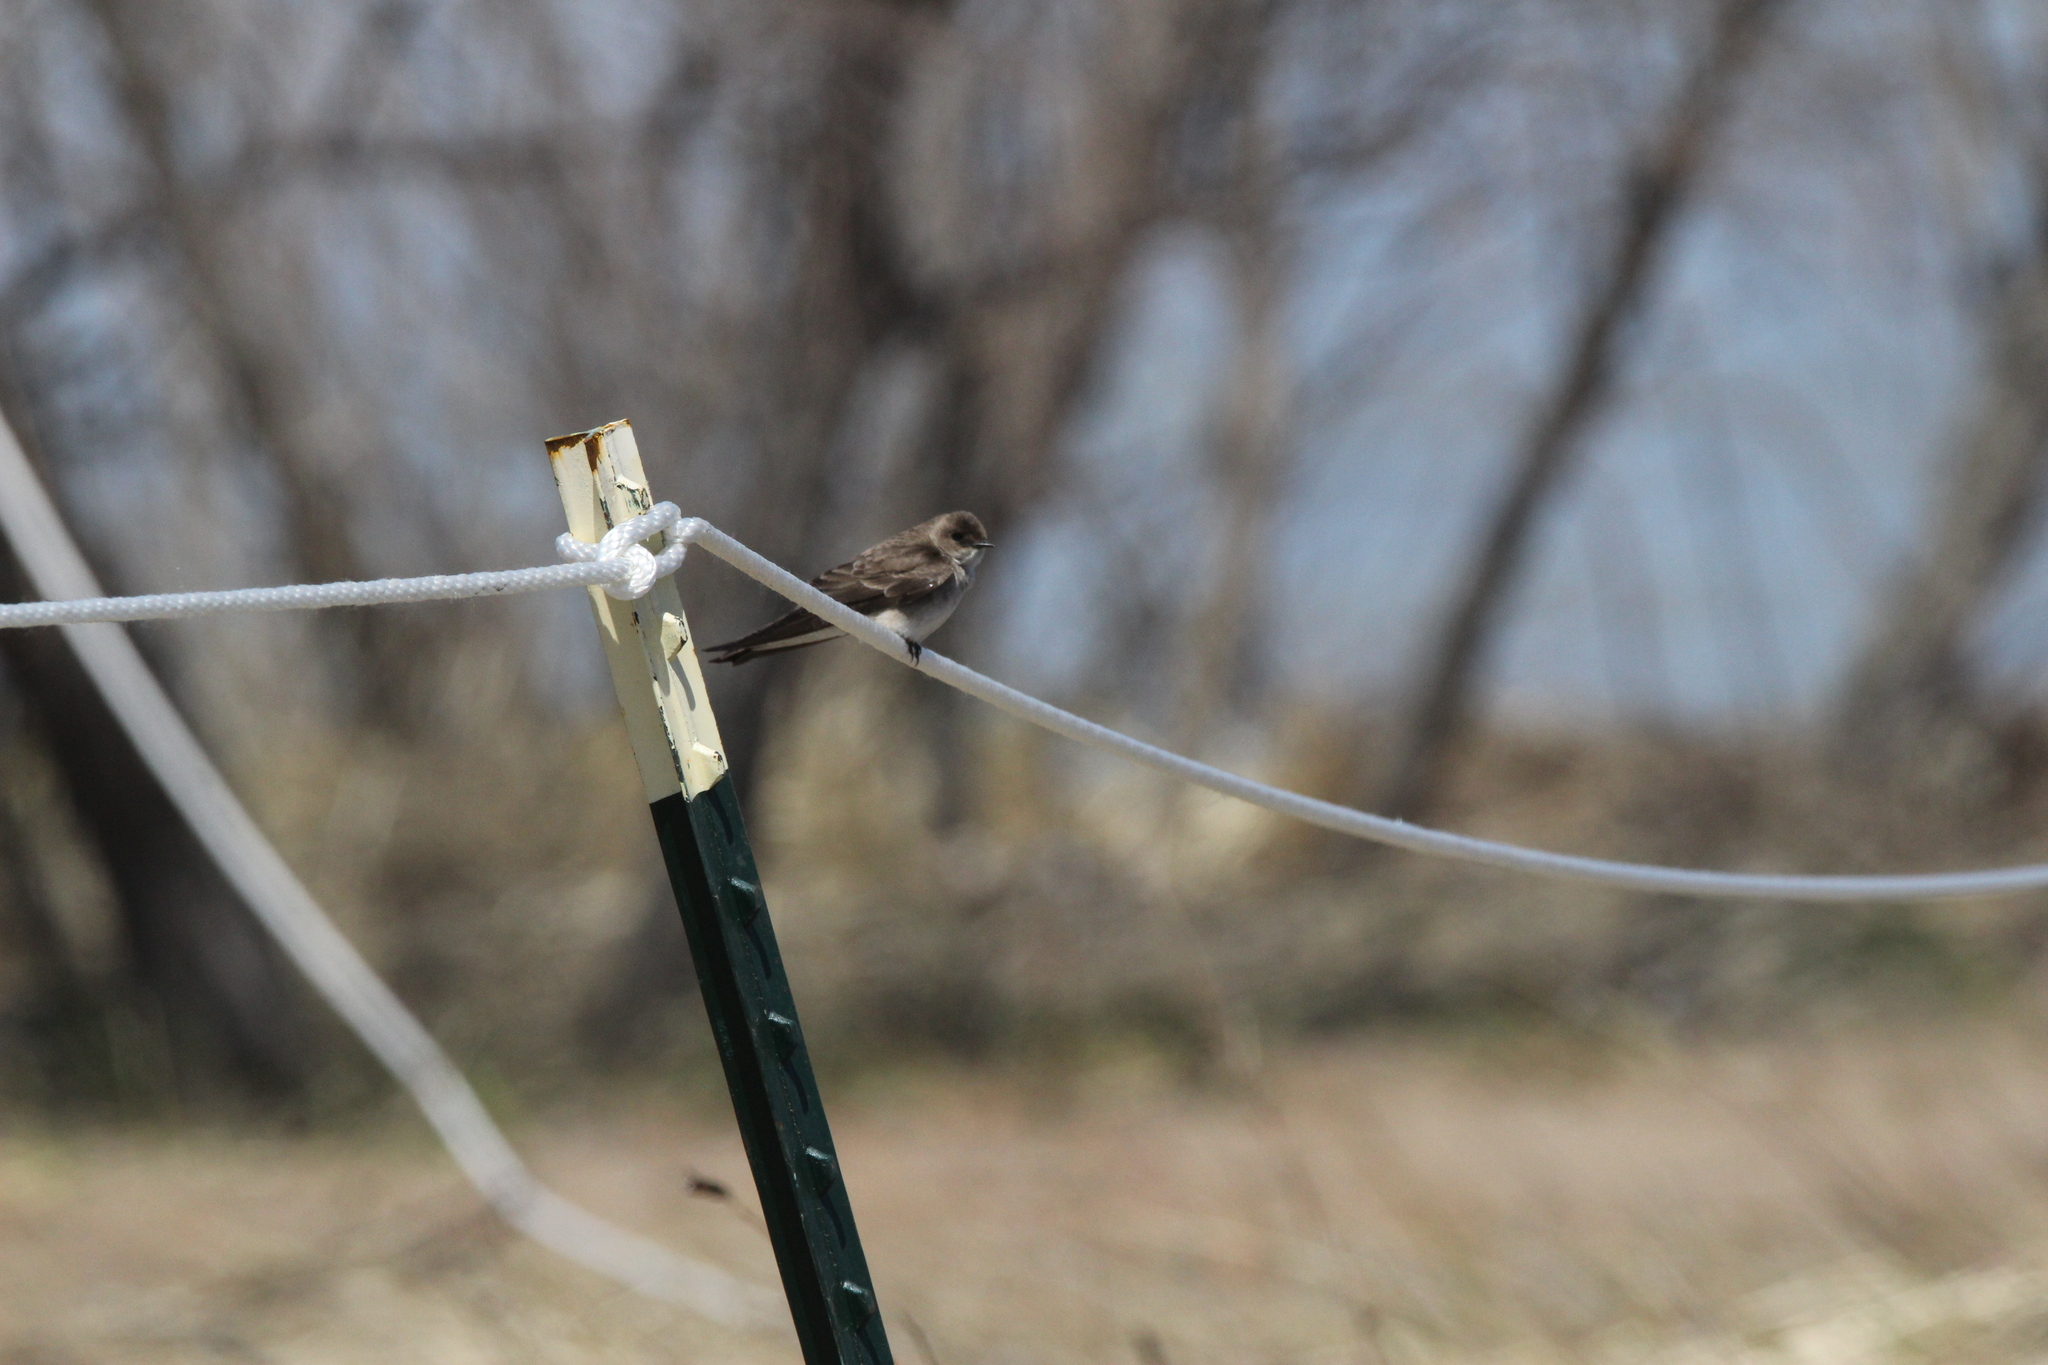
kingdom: Animalia
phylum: Chordata
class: Aves
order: Passeriformes
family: Hirundinidae
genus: Stelgidopteryx
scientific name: Stelgidopteryx serripennis
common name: Northern rough-winged swallow
